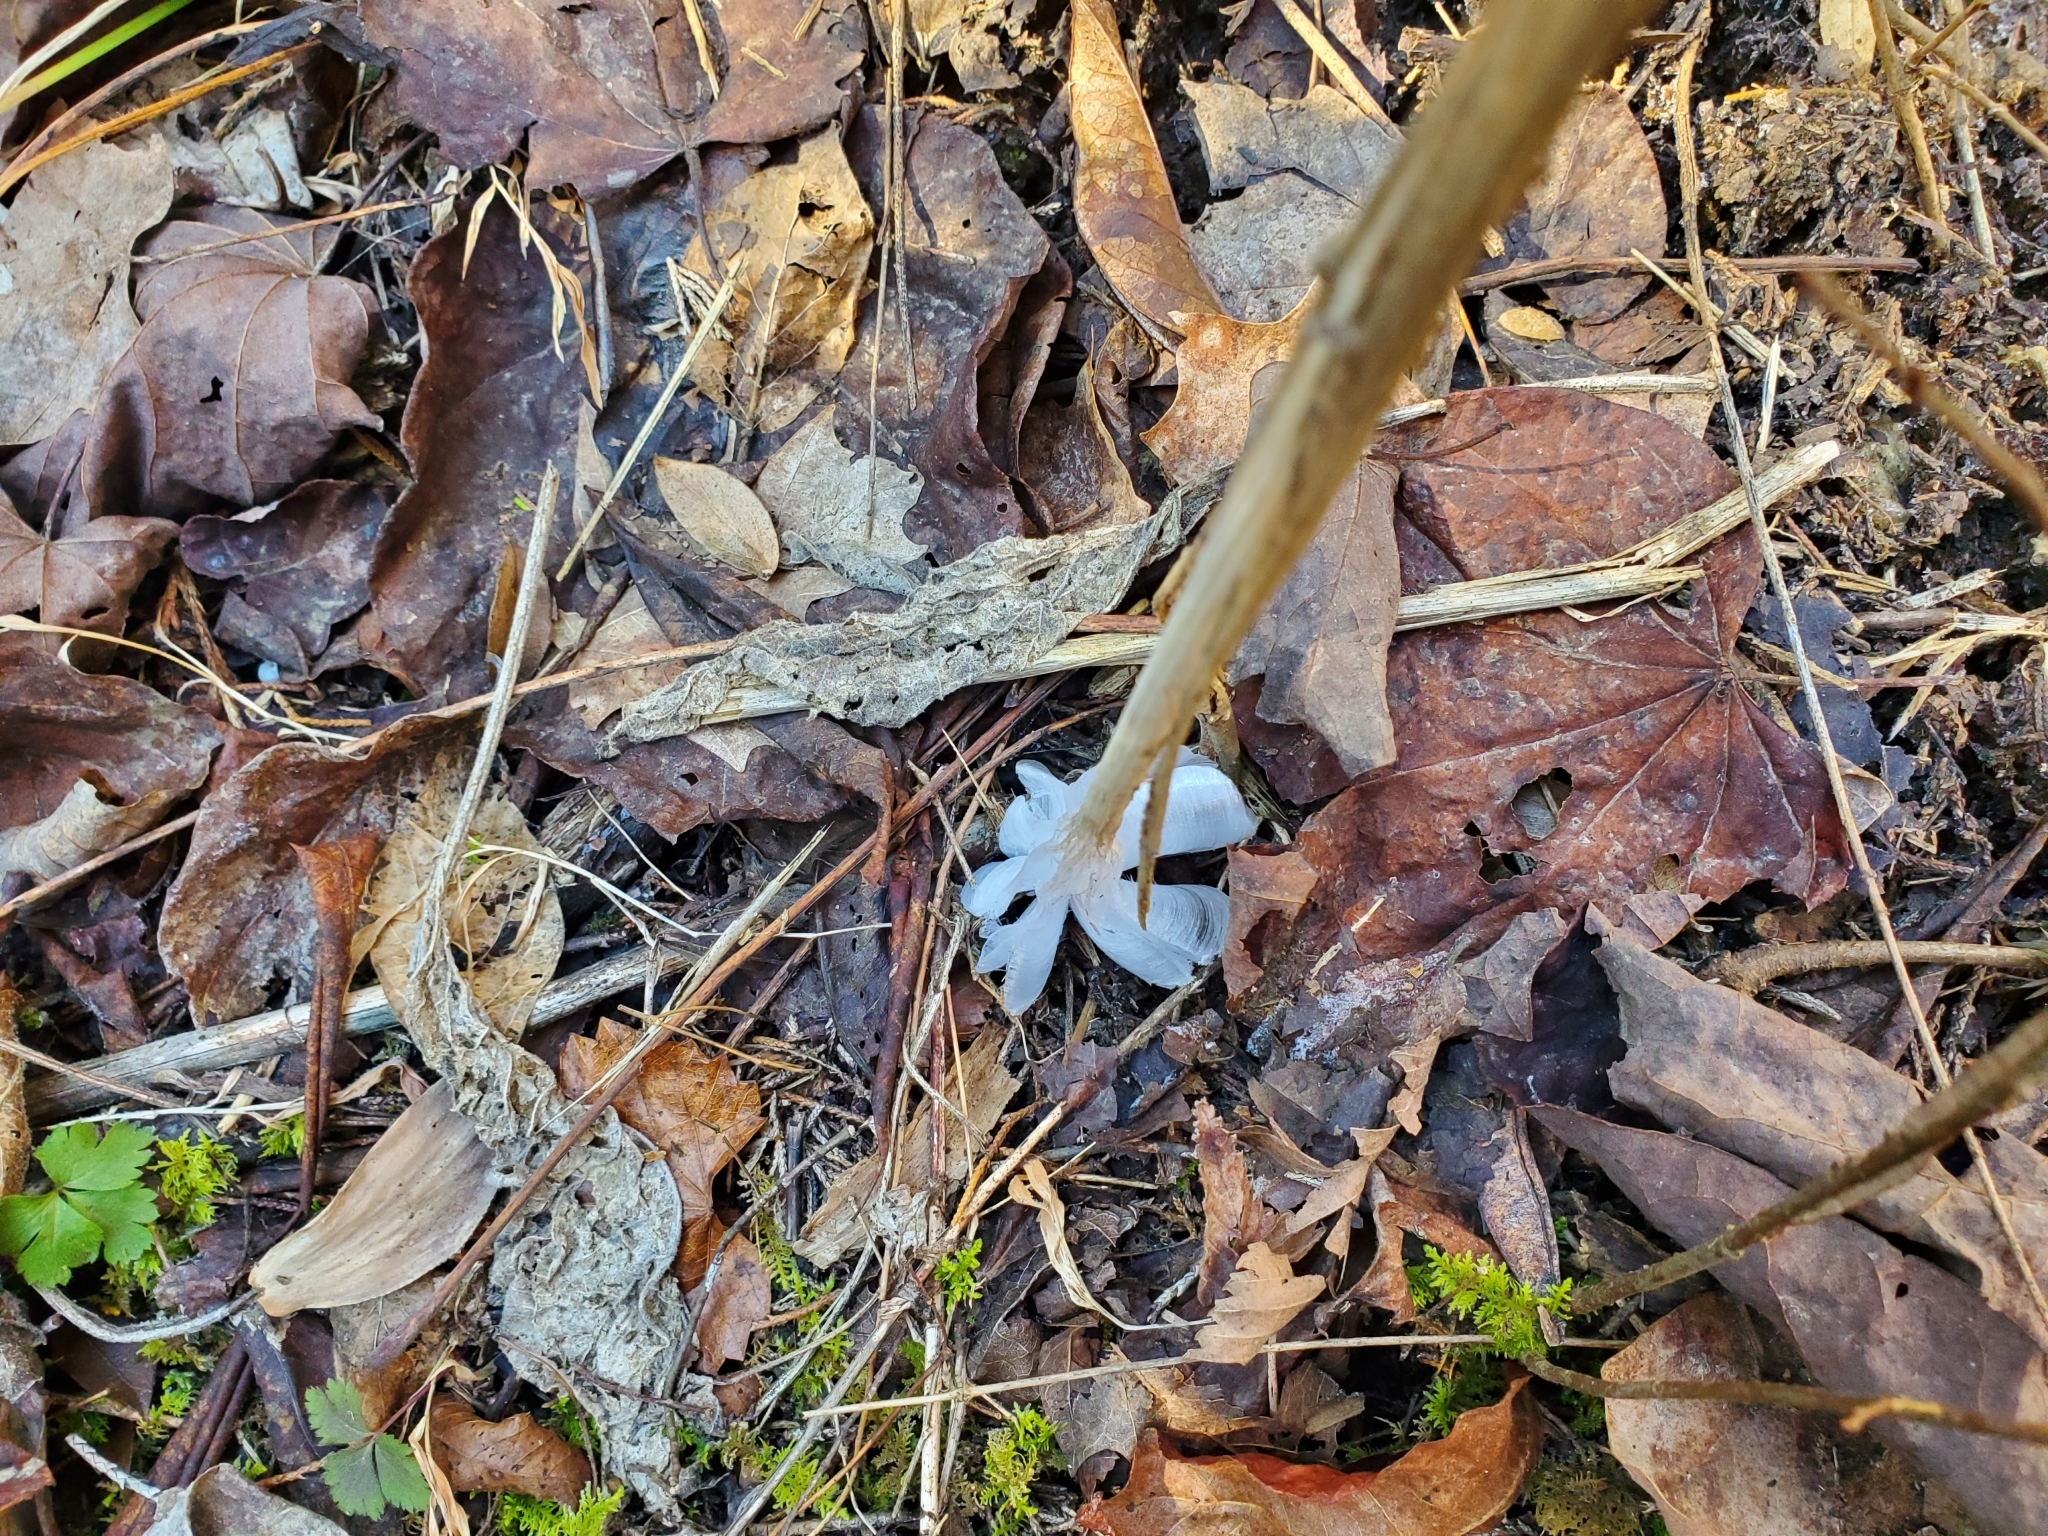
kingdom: Plantae
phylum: Tracheophyta
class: Magnoliopsida
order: Asterales
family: Asteraceae
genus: Verbesina
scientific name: Verbesina virginica
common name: Frostweed
